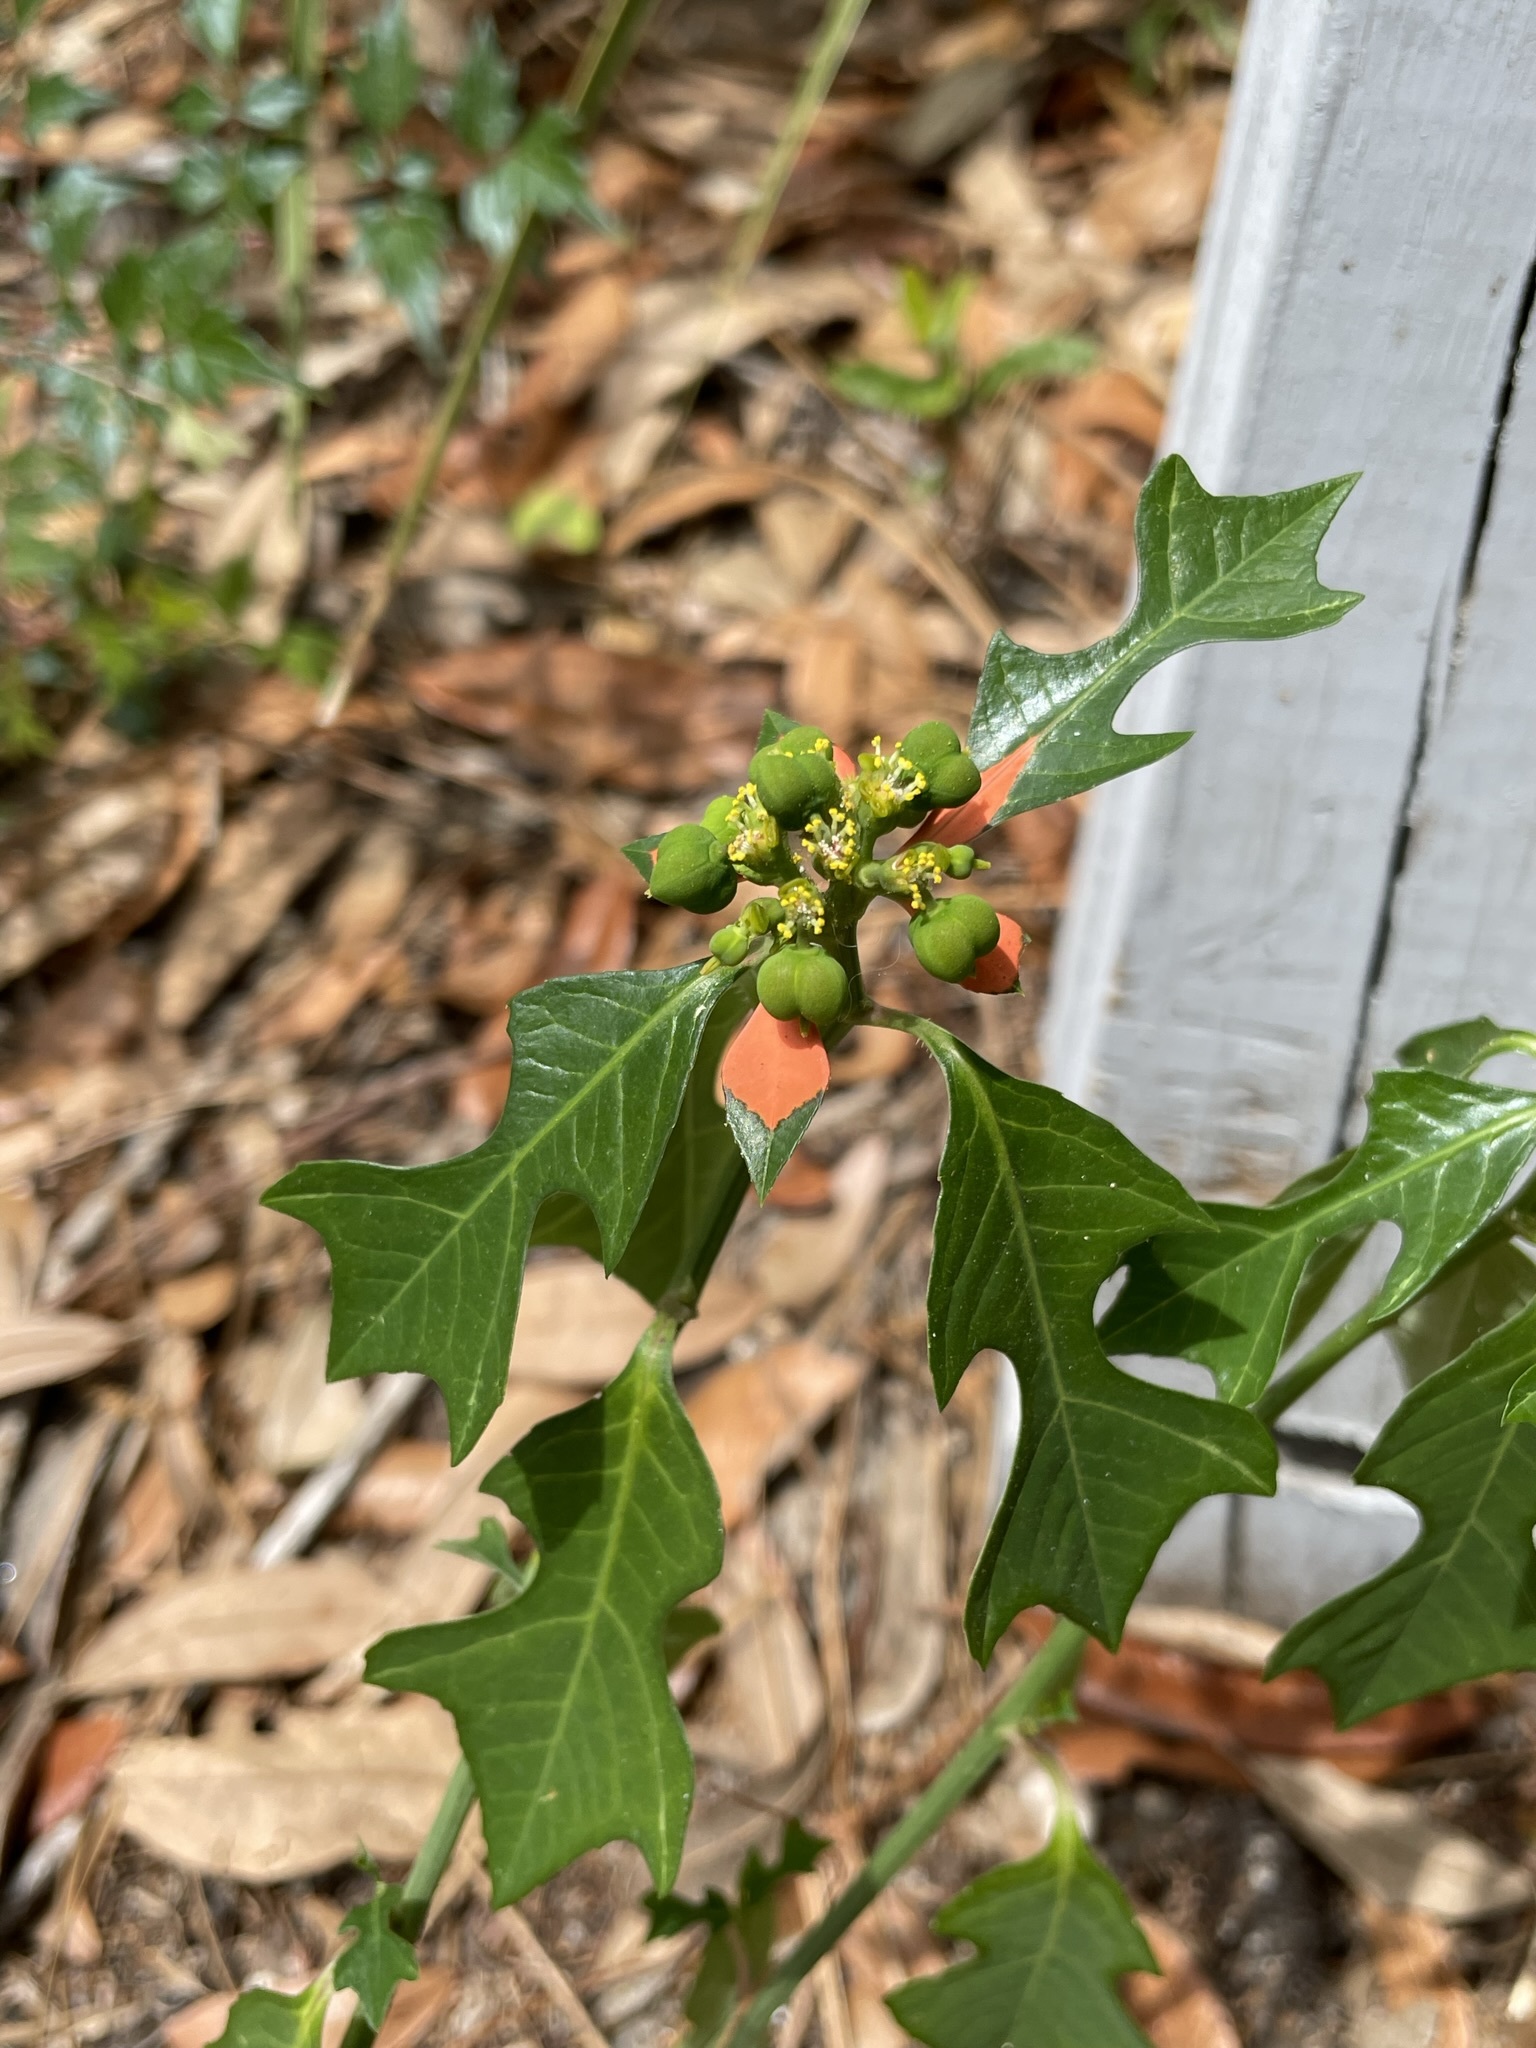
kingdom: Plantae
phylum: Tracheophyta
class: Magnoliopsida
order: Malpighiales
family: Euphorbiaceae
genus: Euphorbia
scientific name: Euphorbia heterophylla
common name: Mexican fireplant
